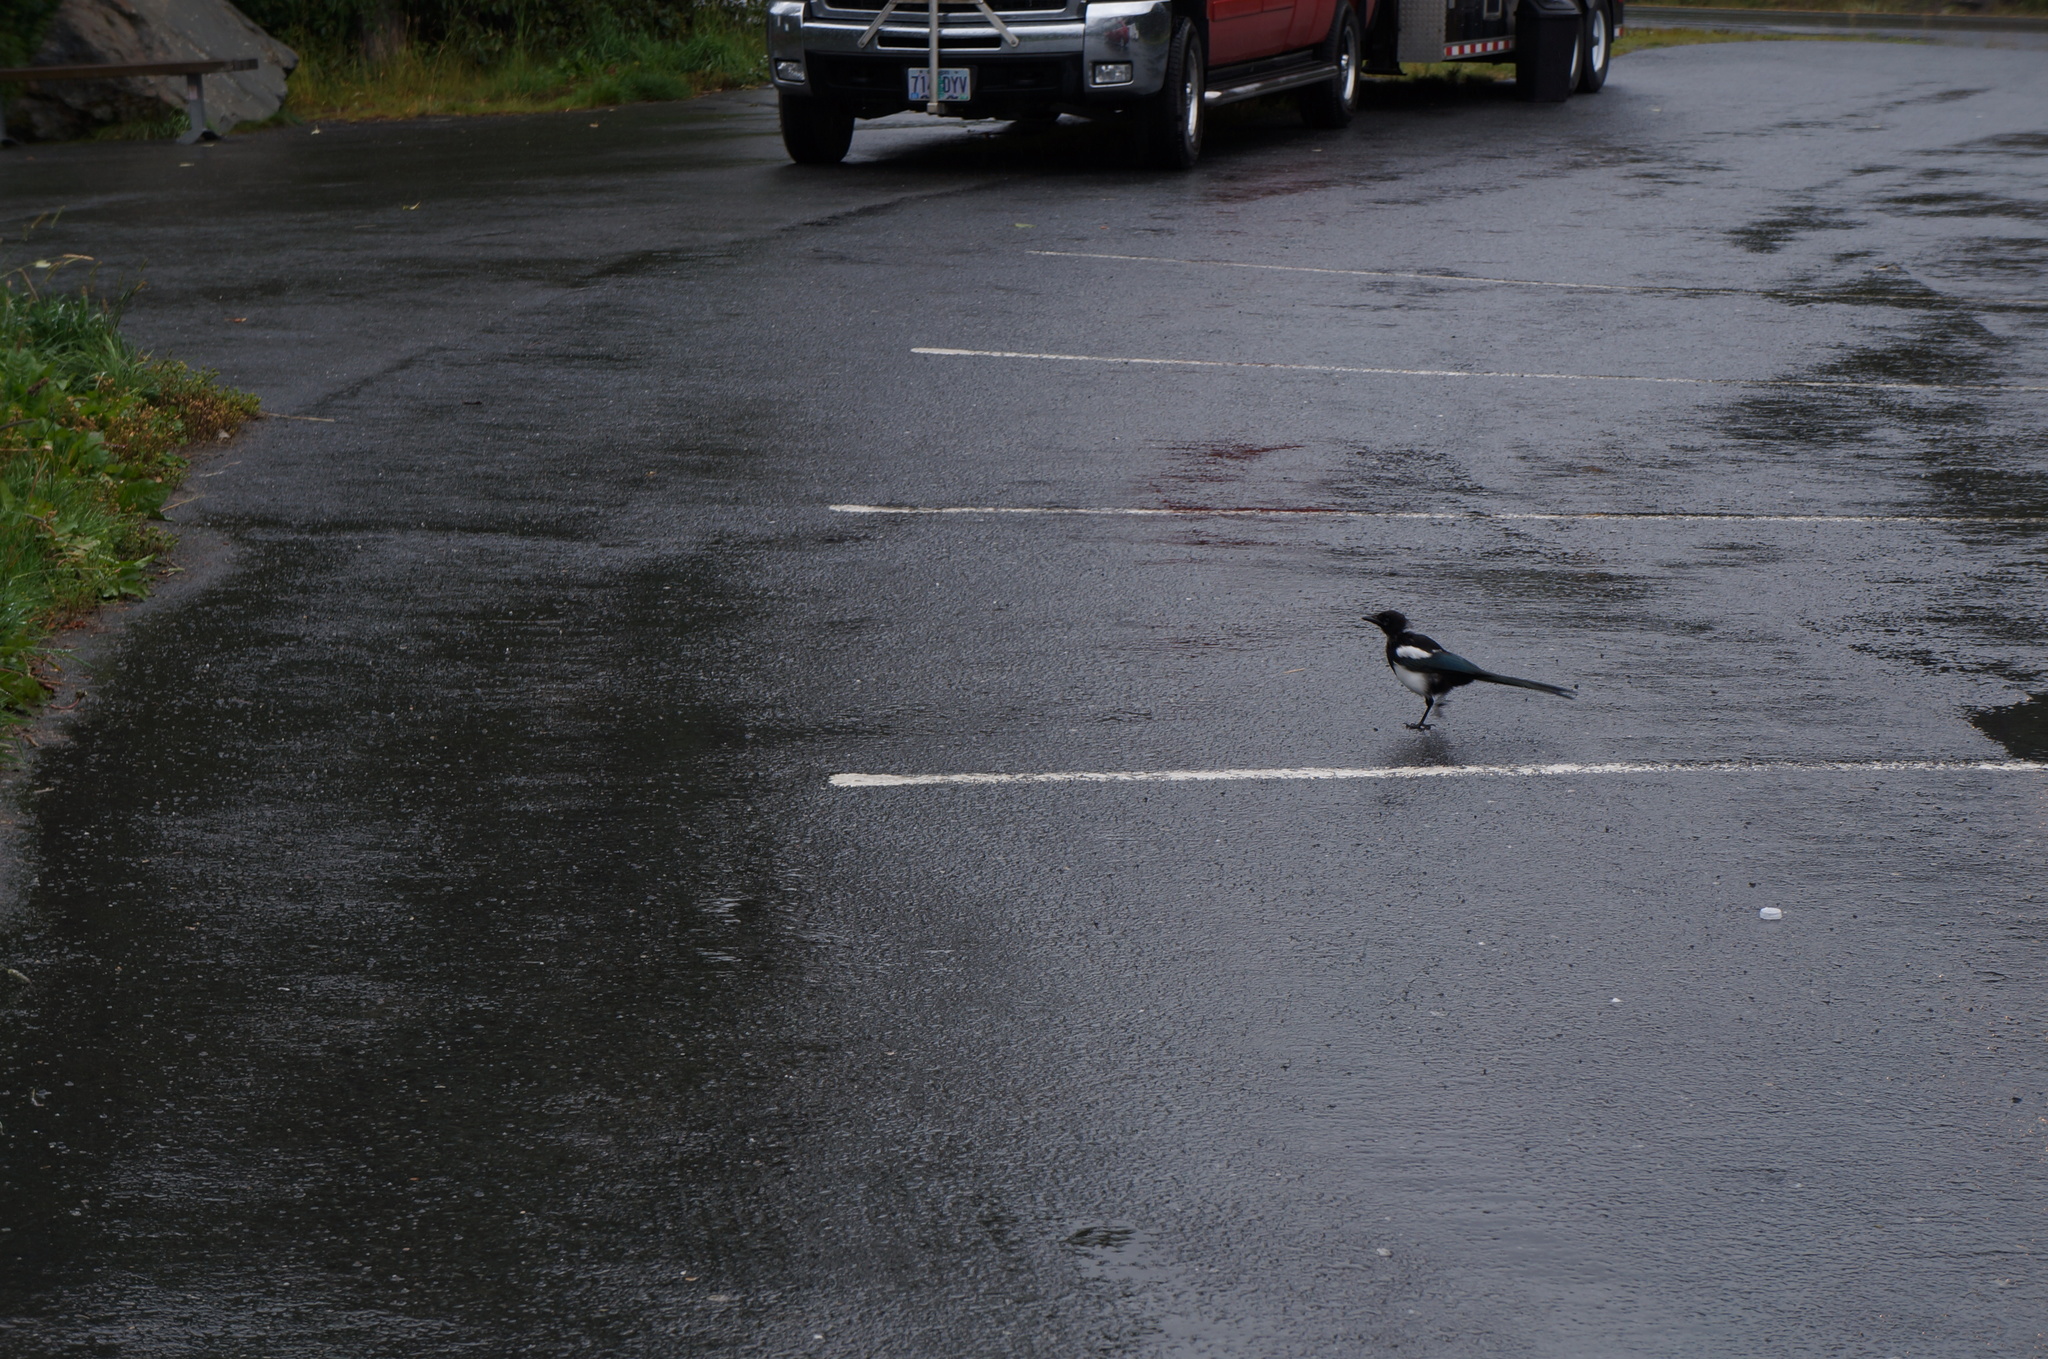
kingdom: Animalia
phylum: Chordata
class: Aves
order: Passeriformes
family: Corvidae
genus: Pica
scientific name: Pica hudsonia
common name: Black-billed magpie
